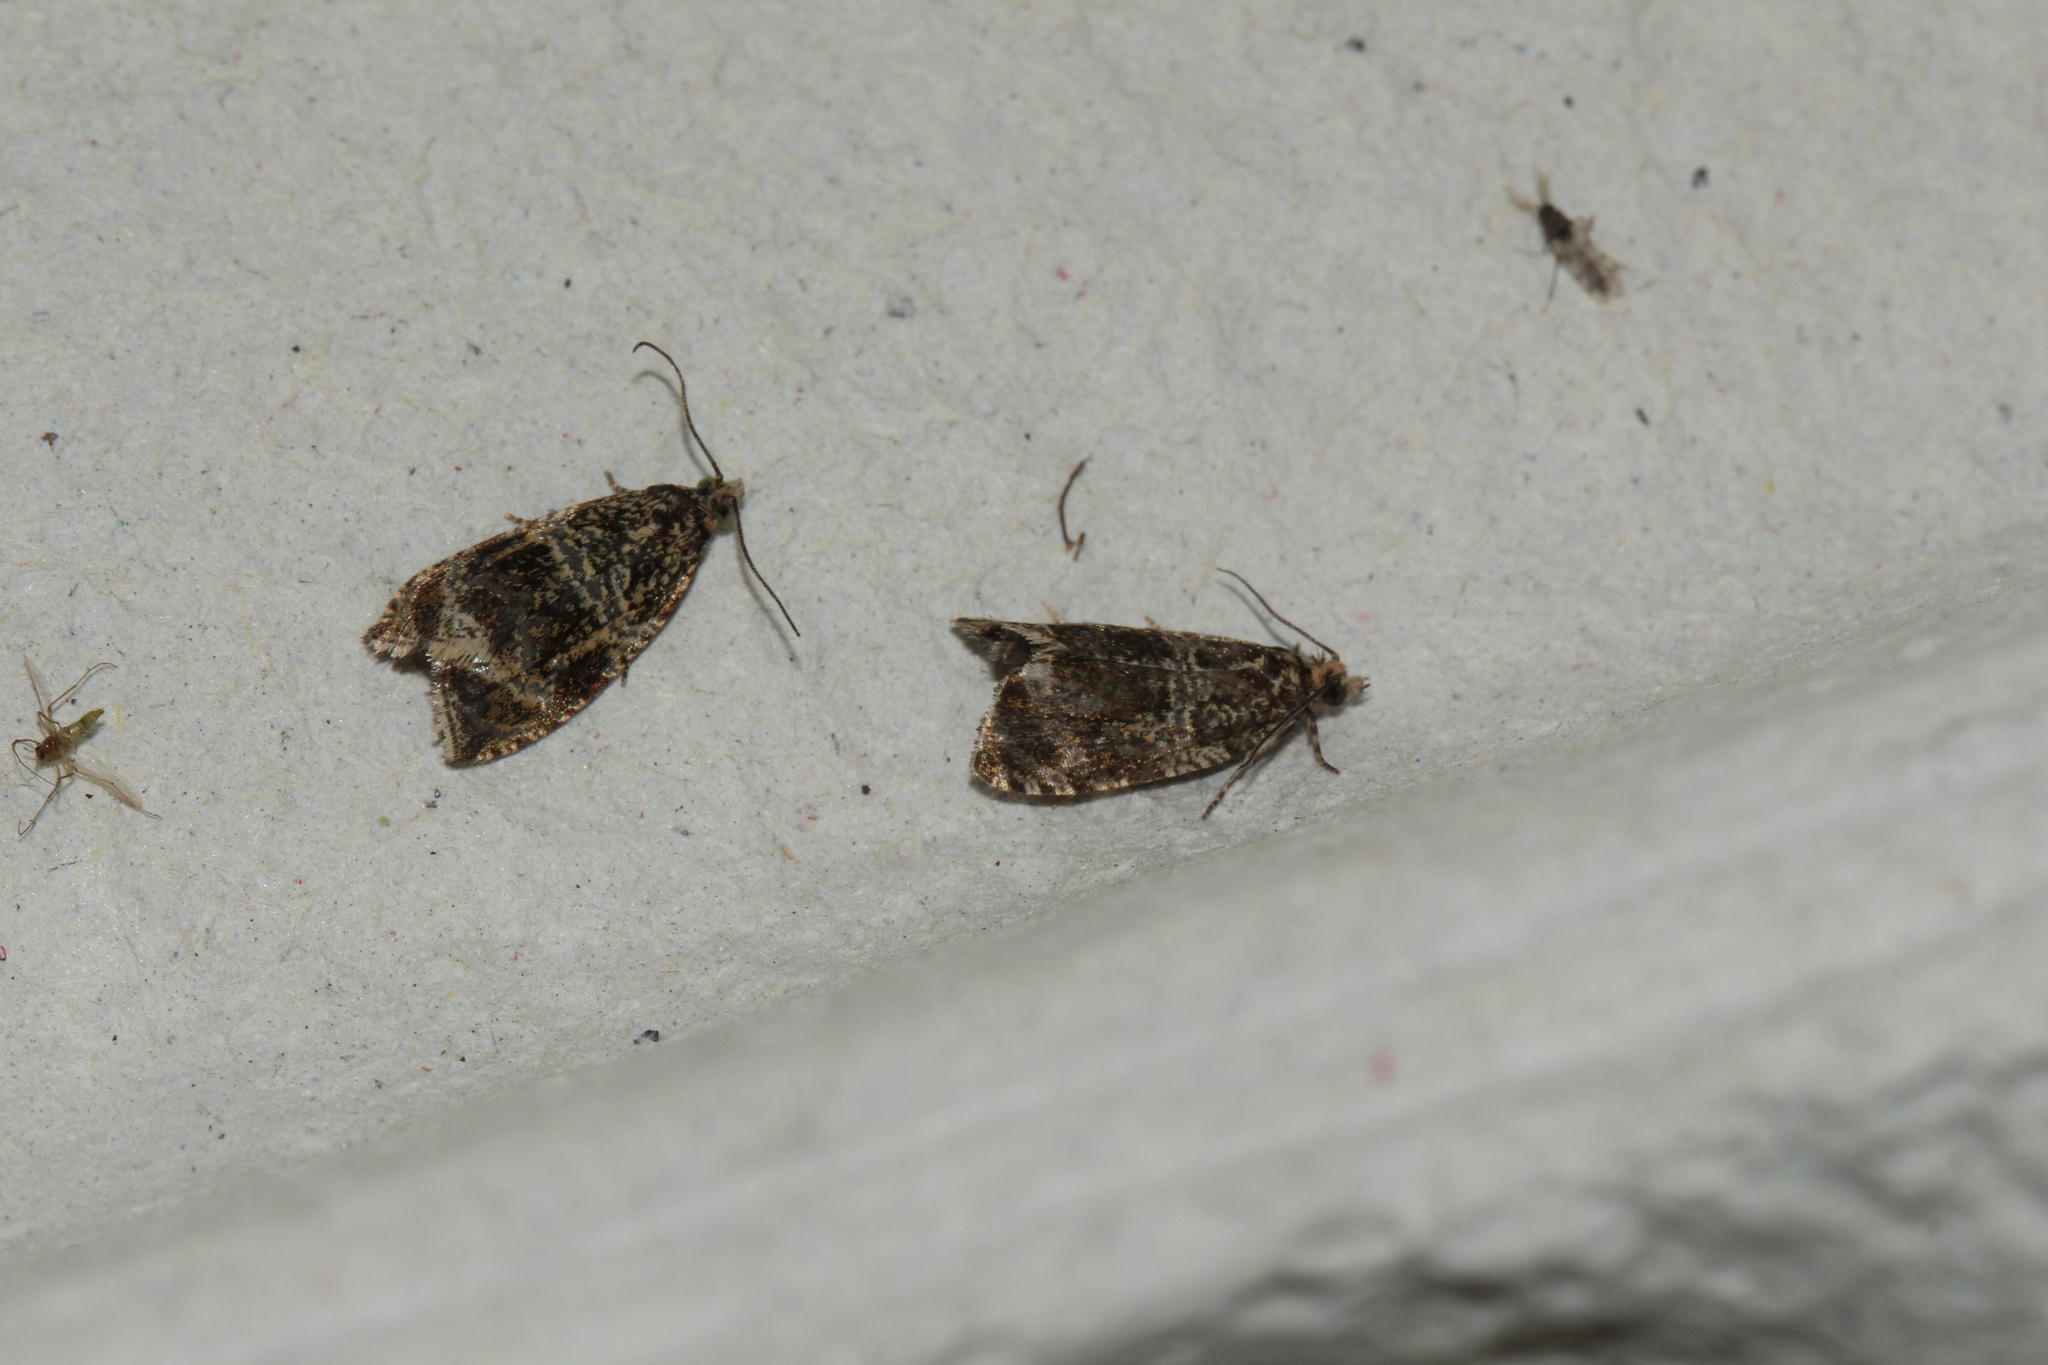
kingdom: Animalia
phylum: Arthropoda
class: Insecta
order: Lepidoptera
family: Tortricidae
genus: Syricoris
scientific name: Syricoris lacunana
